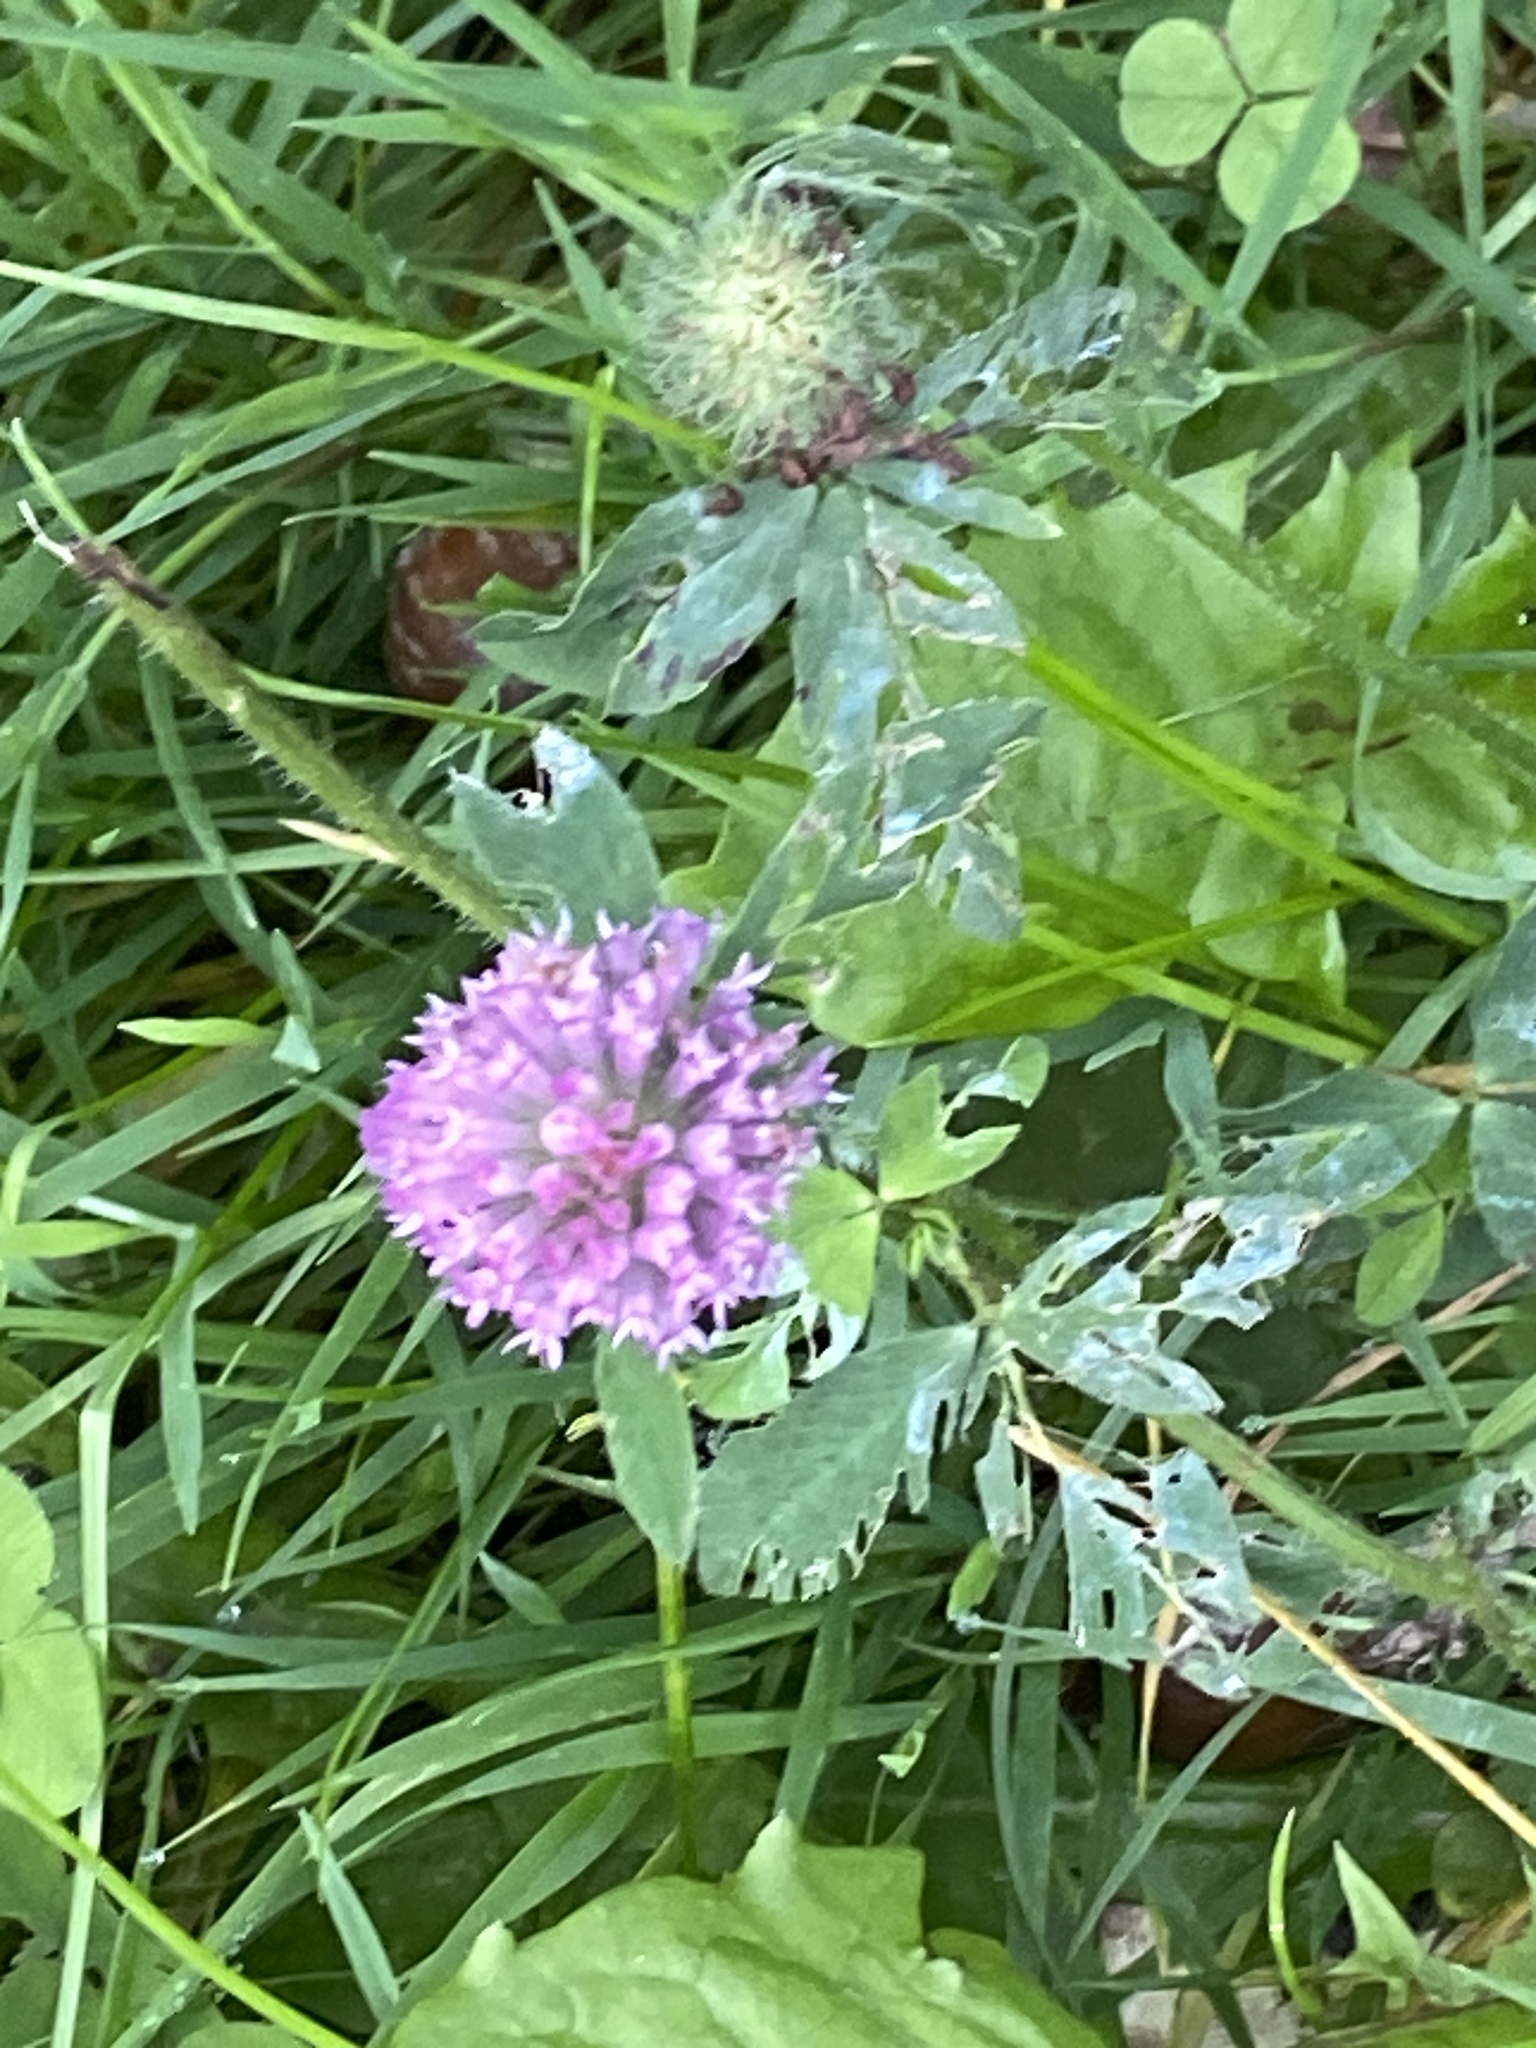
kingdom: Plantae
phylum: Tracheophyta
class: Magnoliopsida
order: Fabales
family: Fabaceae
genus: Trifolium
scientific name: Trifolium pratense
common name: Red clover
